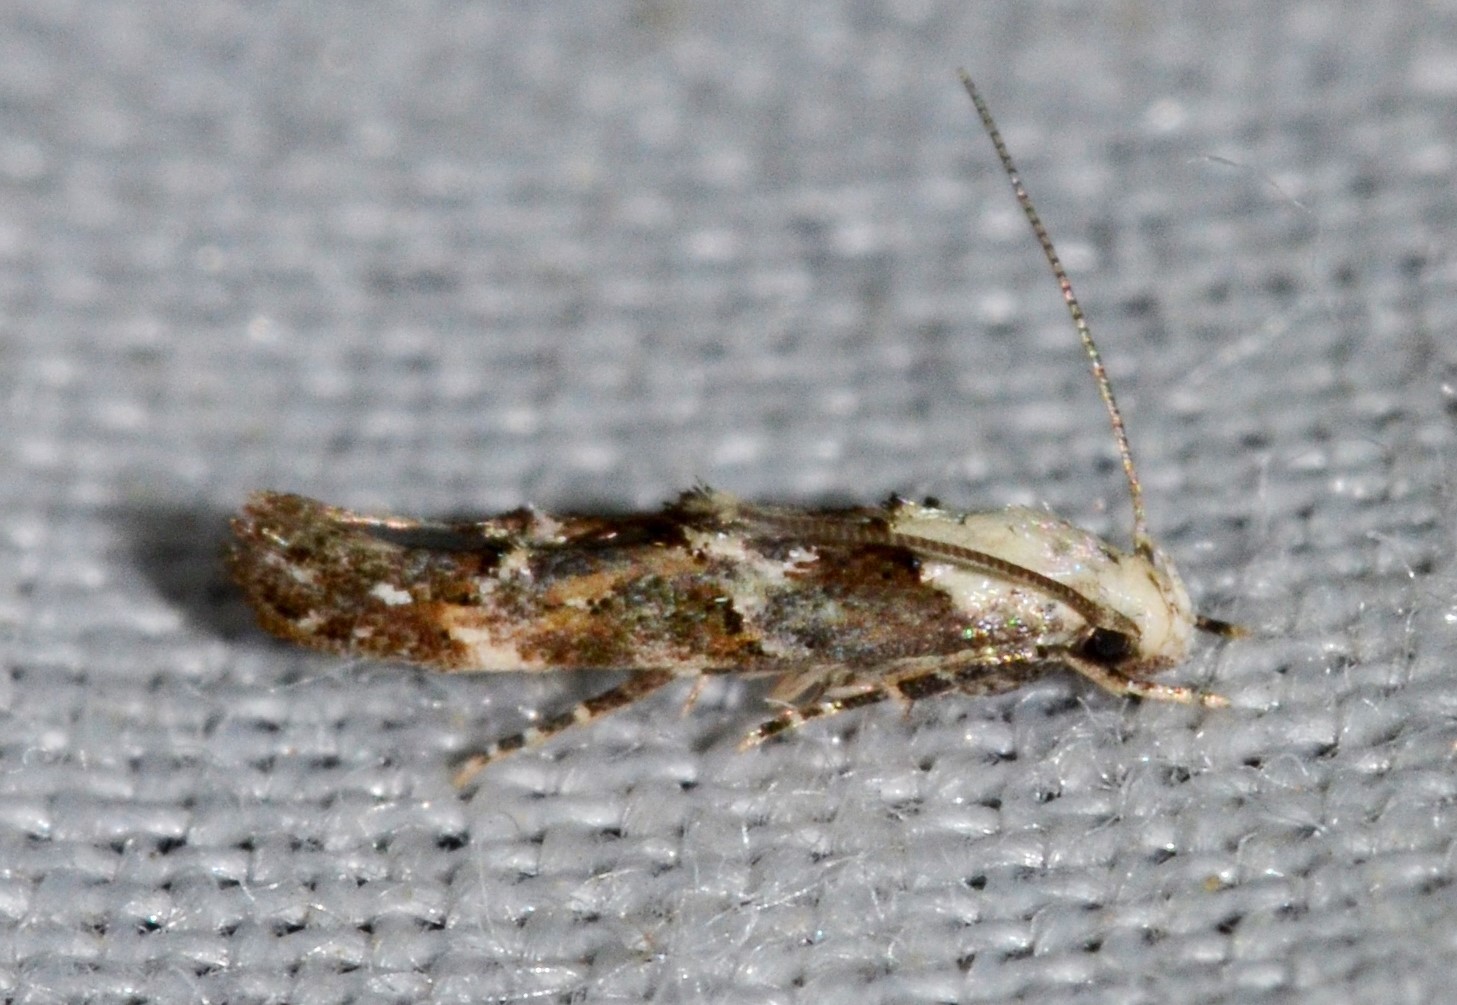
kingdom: Animalia
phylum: Arthropoda
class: Insecta
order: Lepidoptera
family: Momphidae
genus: Mompha
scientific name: Mompha albocapitella
